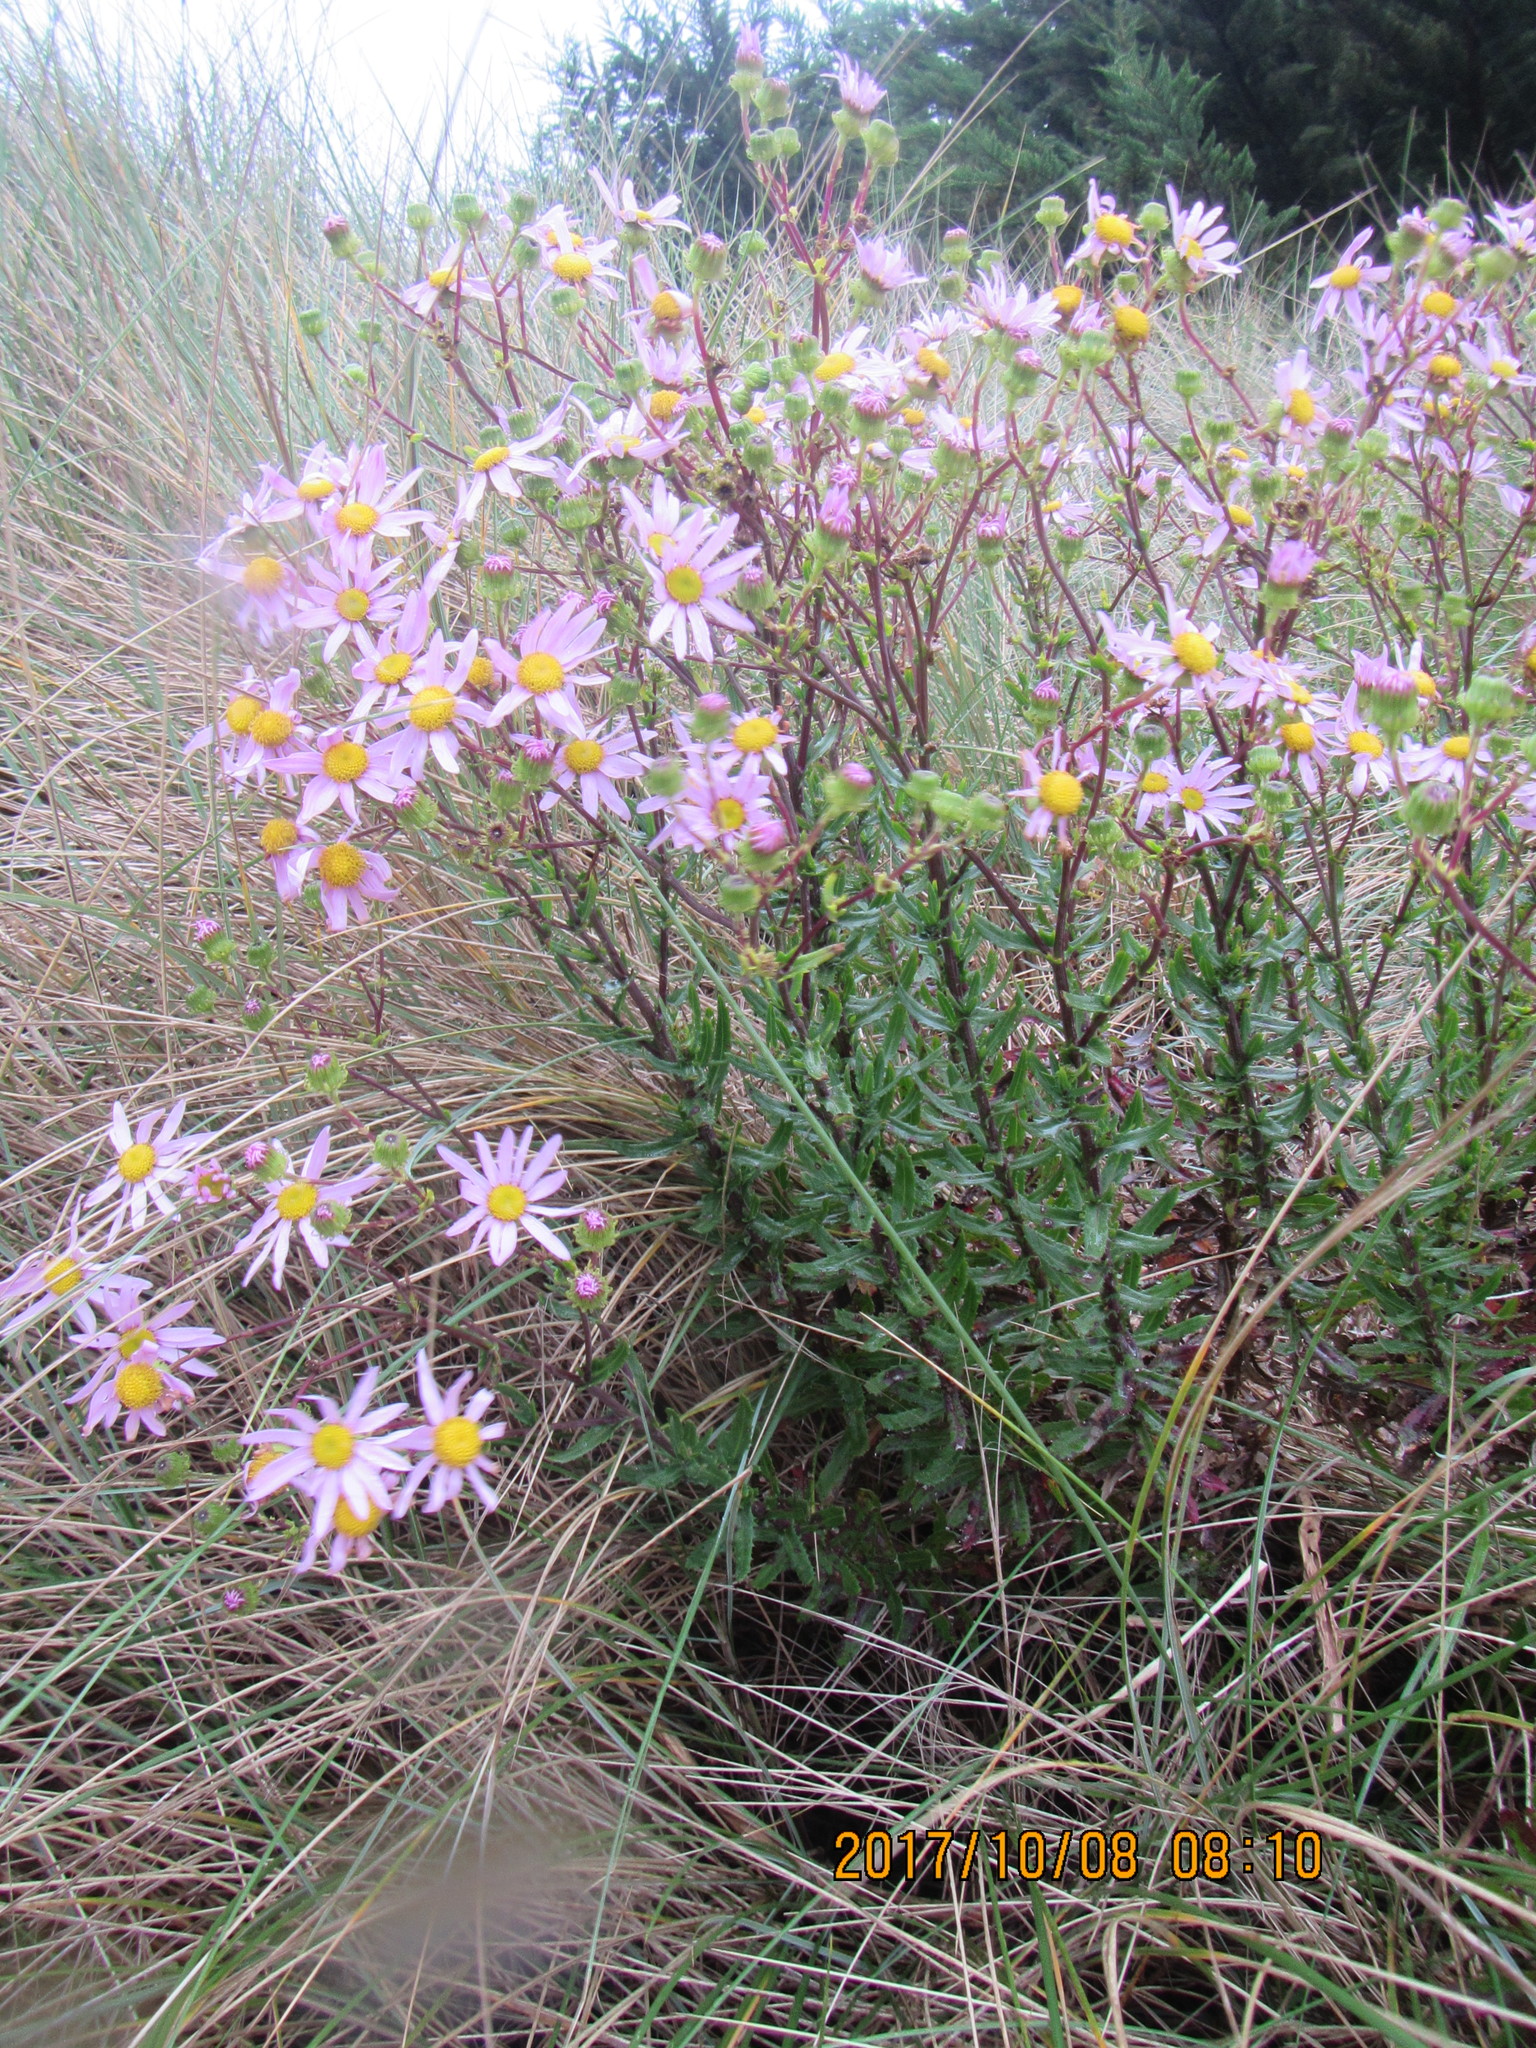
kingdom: Plantae
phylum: Tracheophyta
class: Magnoliopsida
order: Asterales
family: Asteraceae
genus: Senecio
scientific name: Senecio glastifolius
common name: Woad-leaved ragwort
